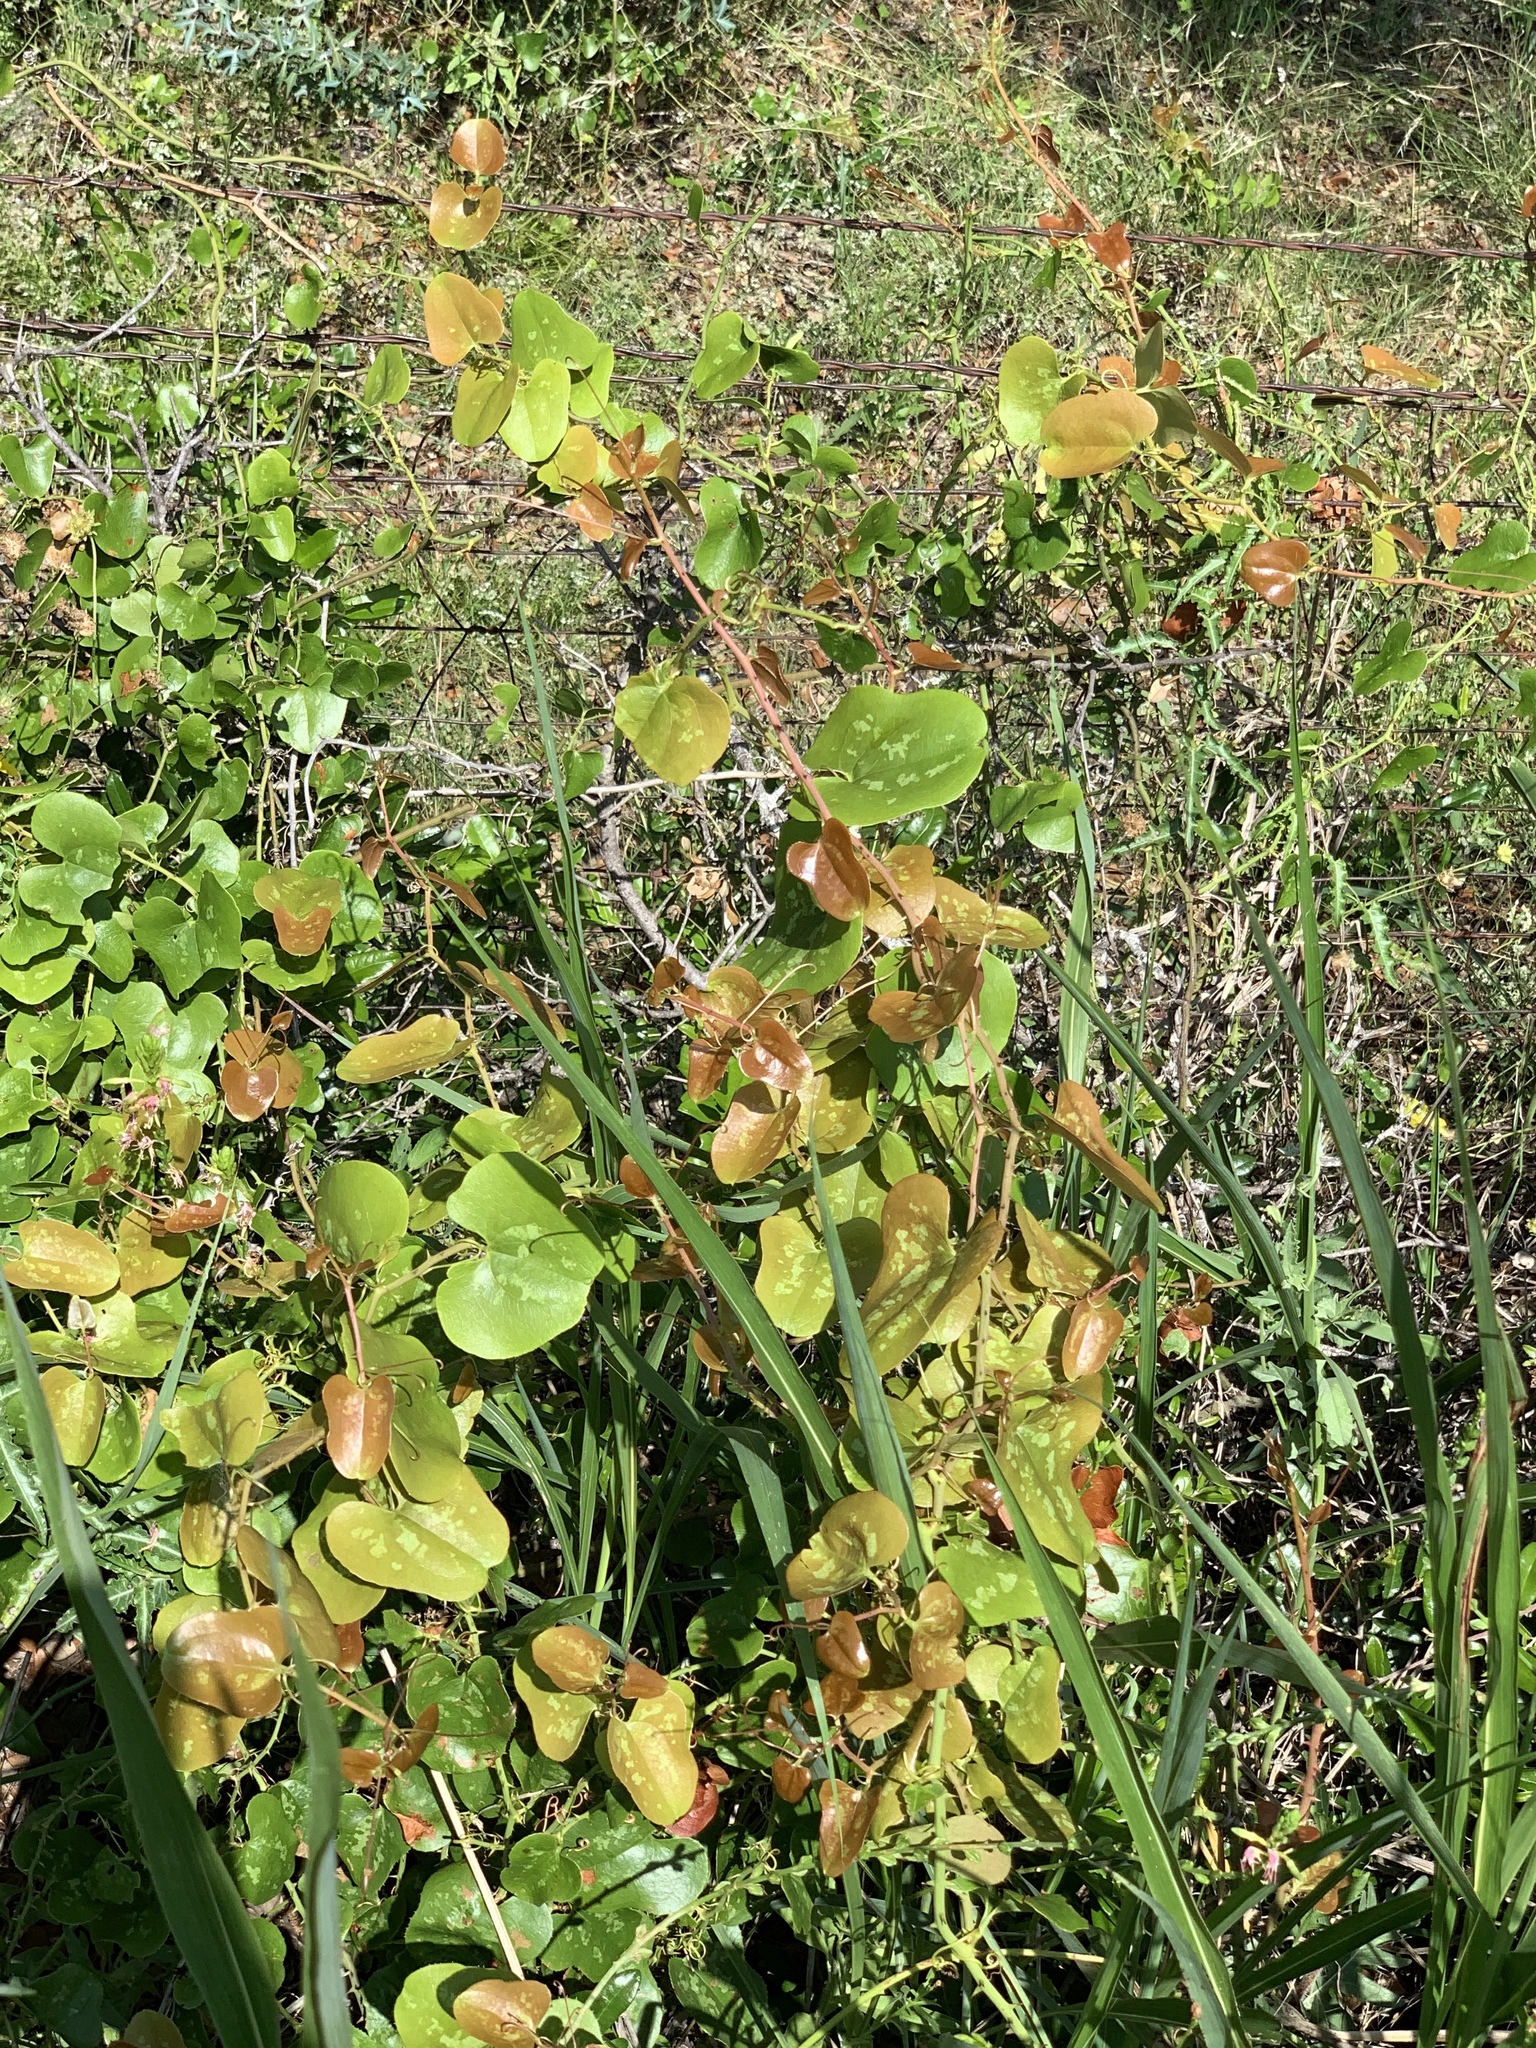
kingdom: Plantae
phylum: Tracheophyta
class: Liliopsida
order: Liliales
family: Smilacaceae
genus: Smilax
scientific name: Smilax bona-nox
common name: Catbrier
